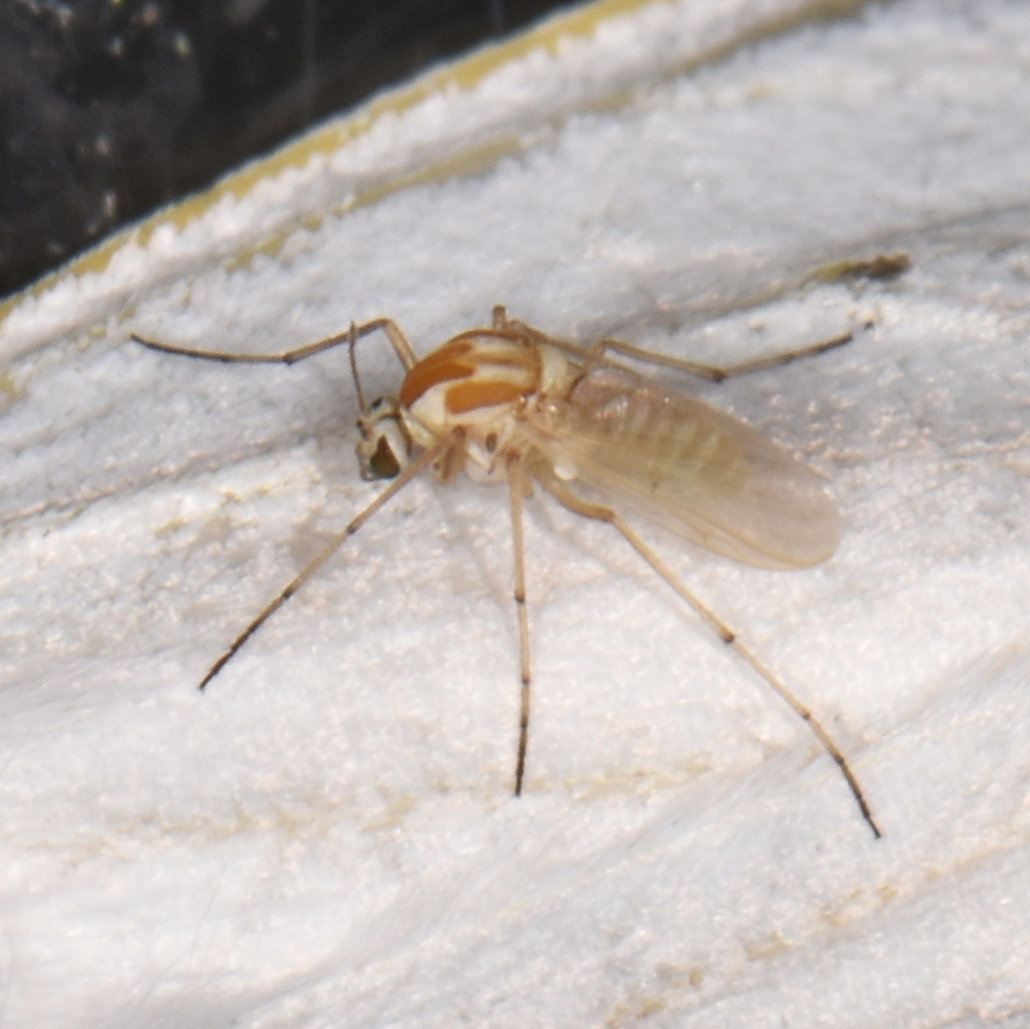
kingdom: Animalia
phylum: Arthropoda
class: Insecta
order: Diptera
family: Chironomidae
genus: Procladius
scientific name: Procladius bellus
